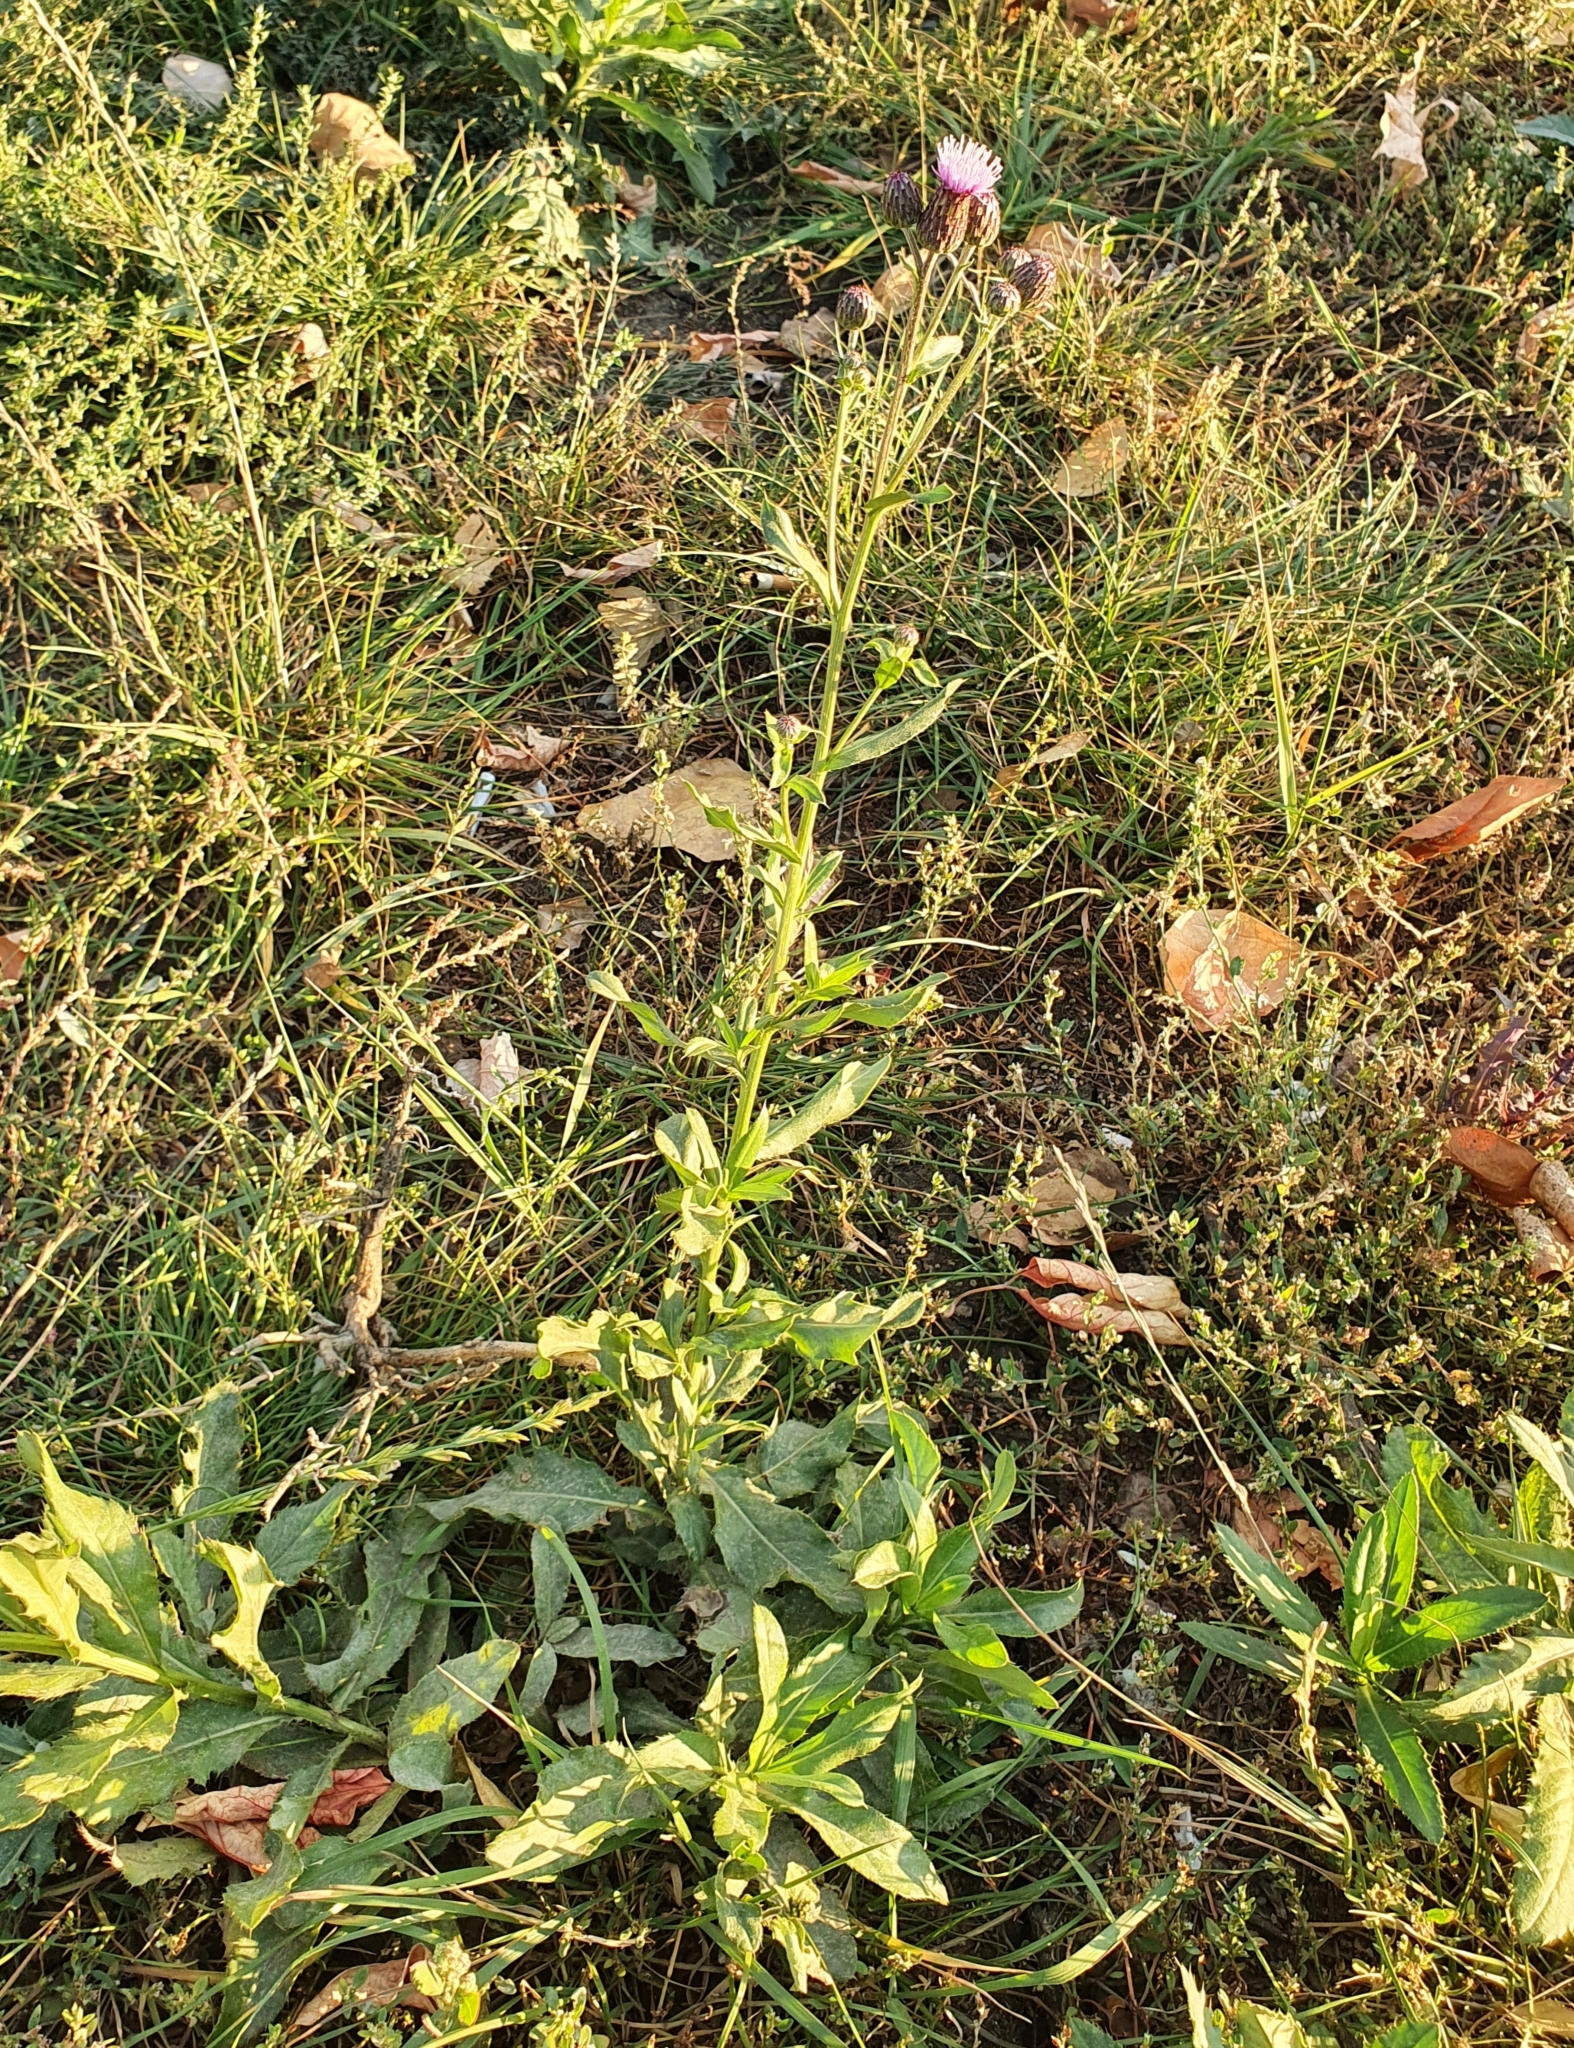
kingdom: Plantae
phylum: Tracheophyta
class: Magnoliopsida
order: Asterales
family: Asteraceae
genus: Cirsium
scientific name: Cirsium arvense
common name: Creeping thistle
